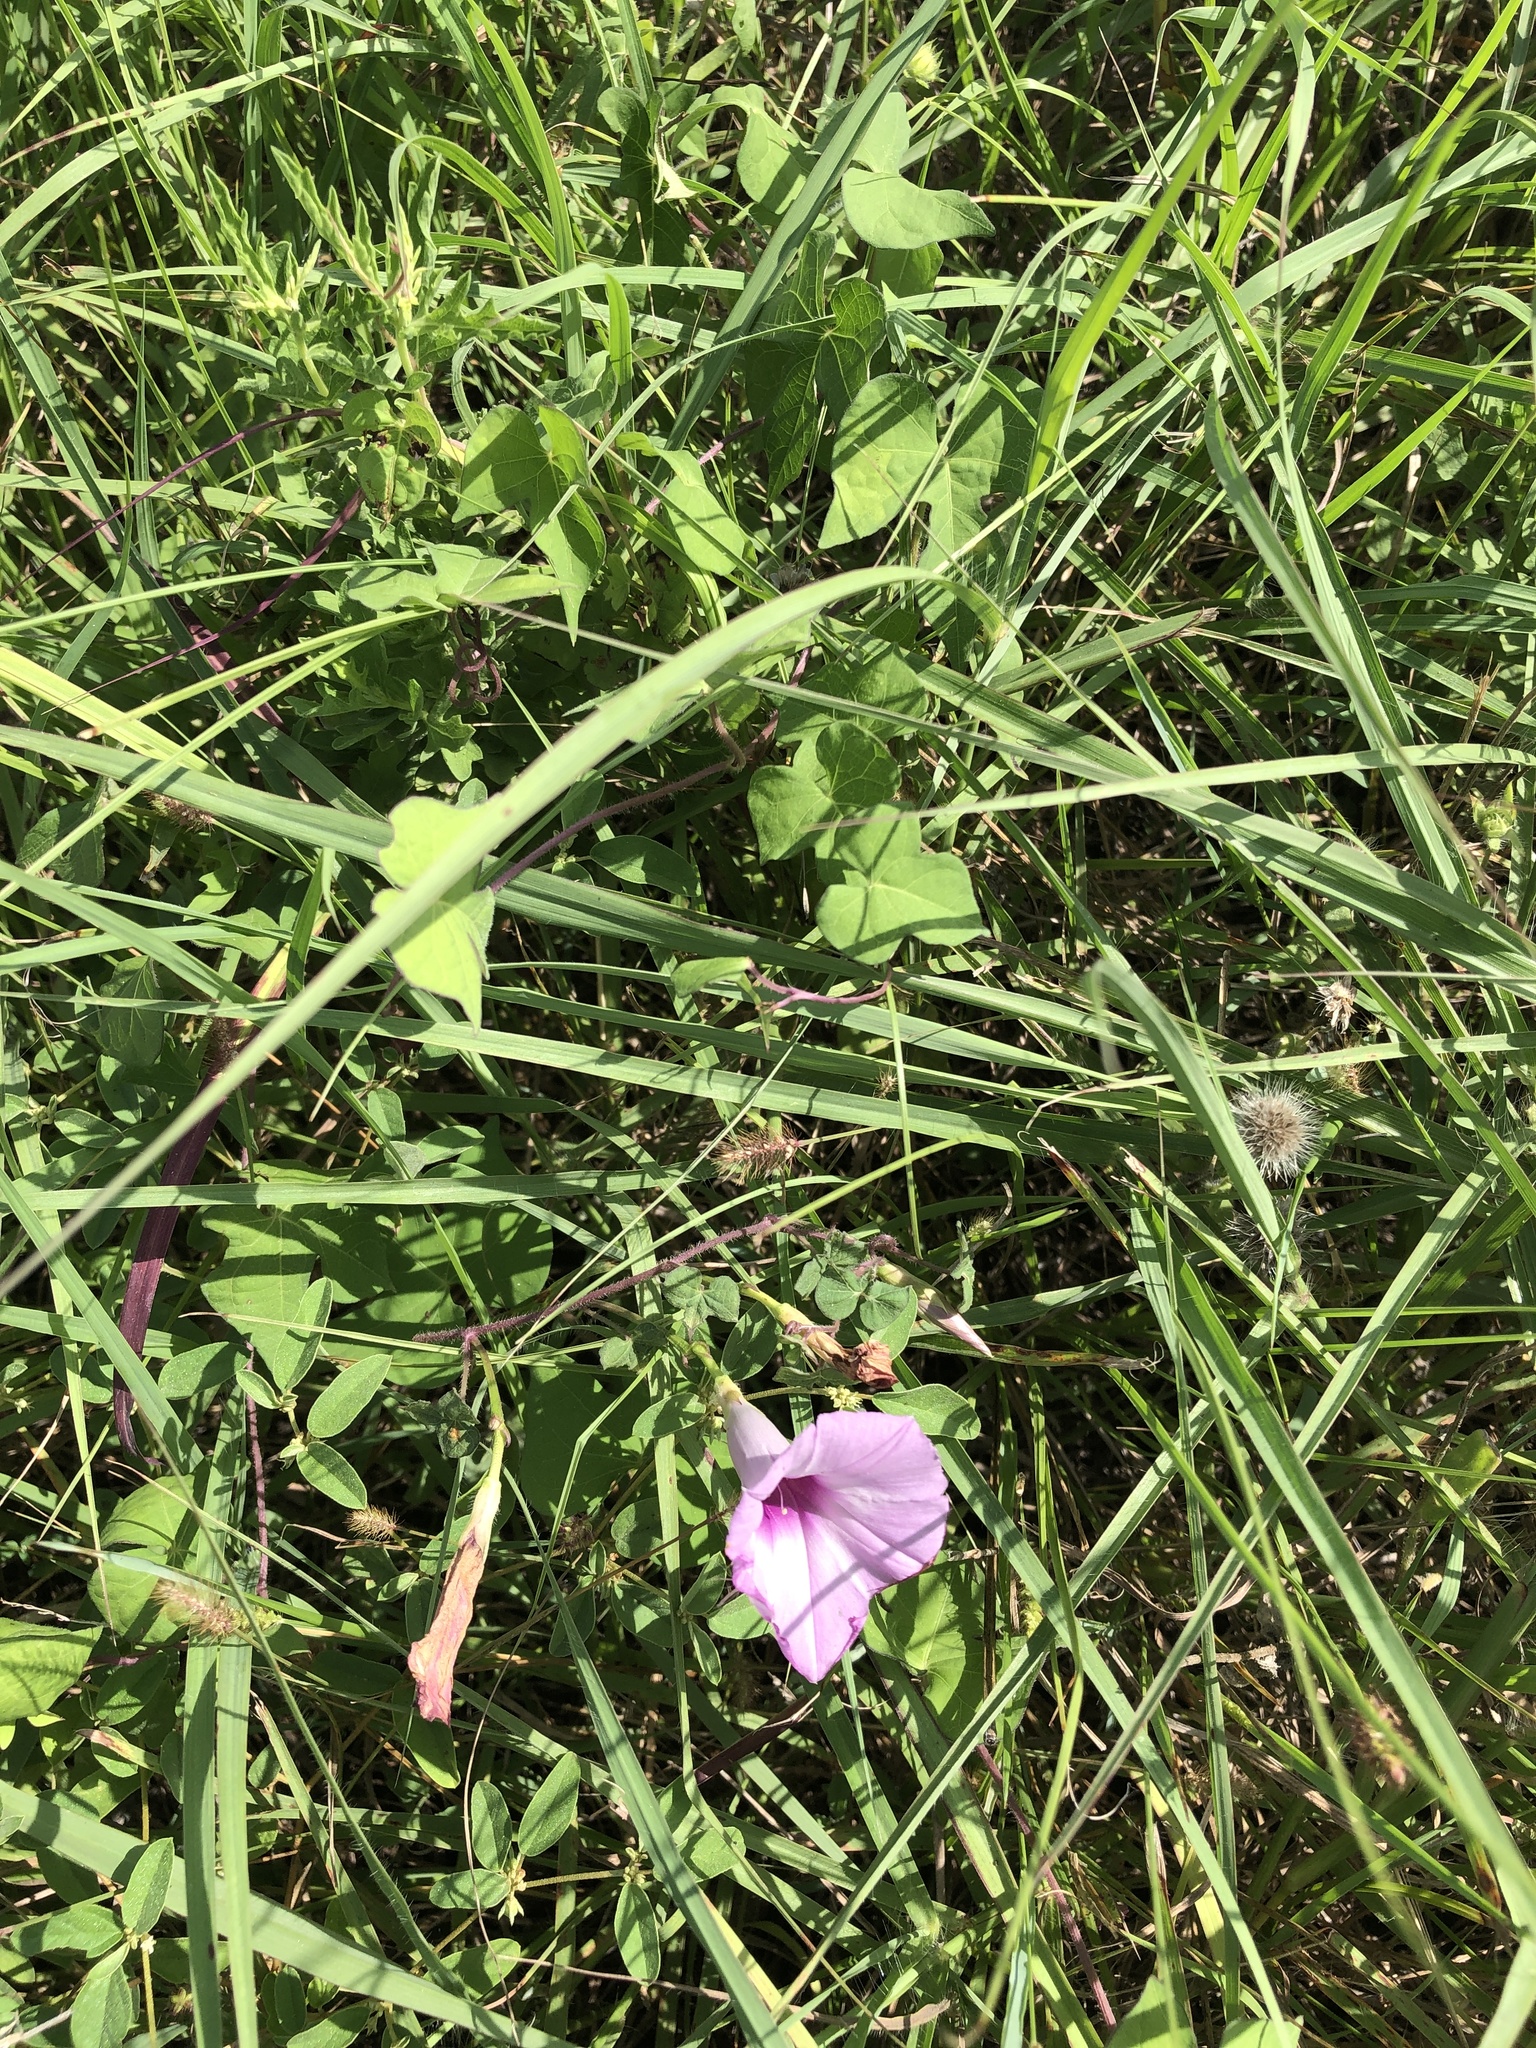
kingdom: Plantae
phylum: Tracheophyta
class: Magnoliopsida
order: Solanales
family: Convolvulaceae
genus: Ipomoea
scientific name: Ipomoea cordatotriloba
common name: Cotton morning glory
